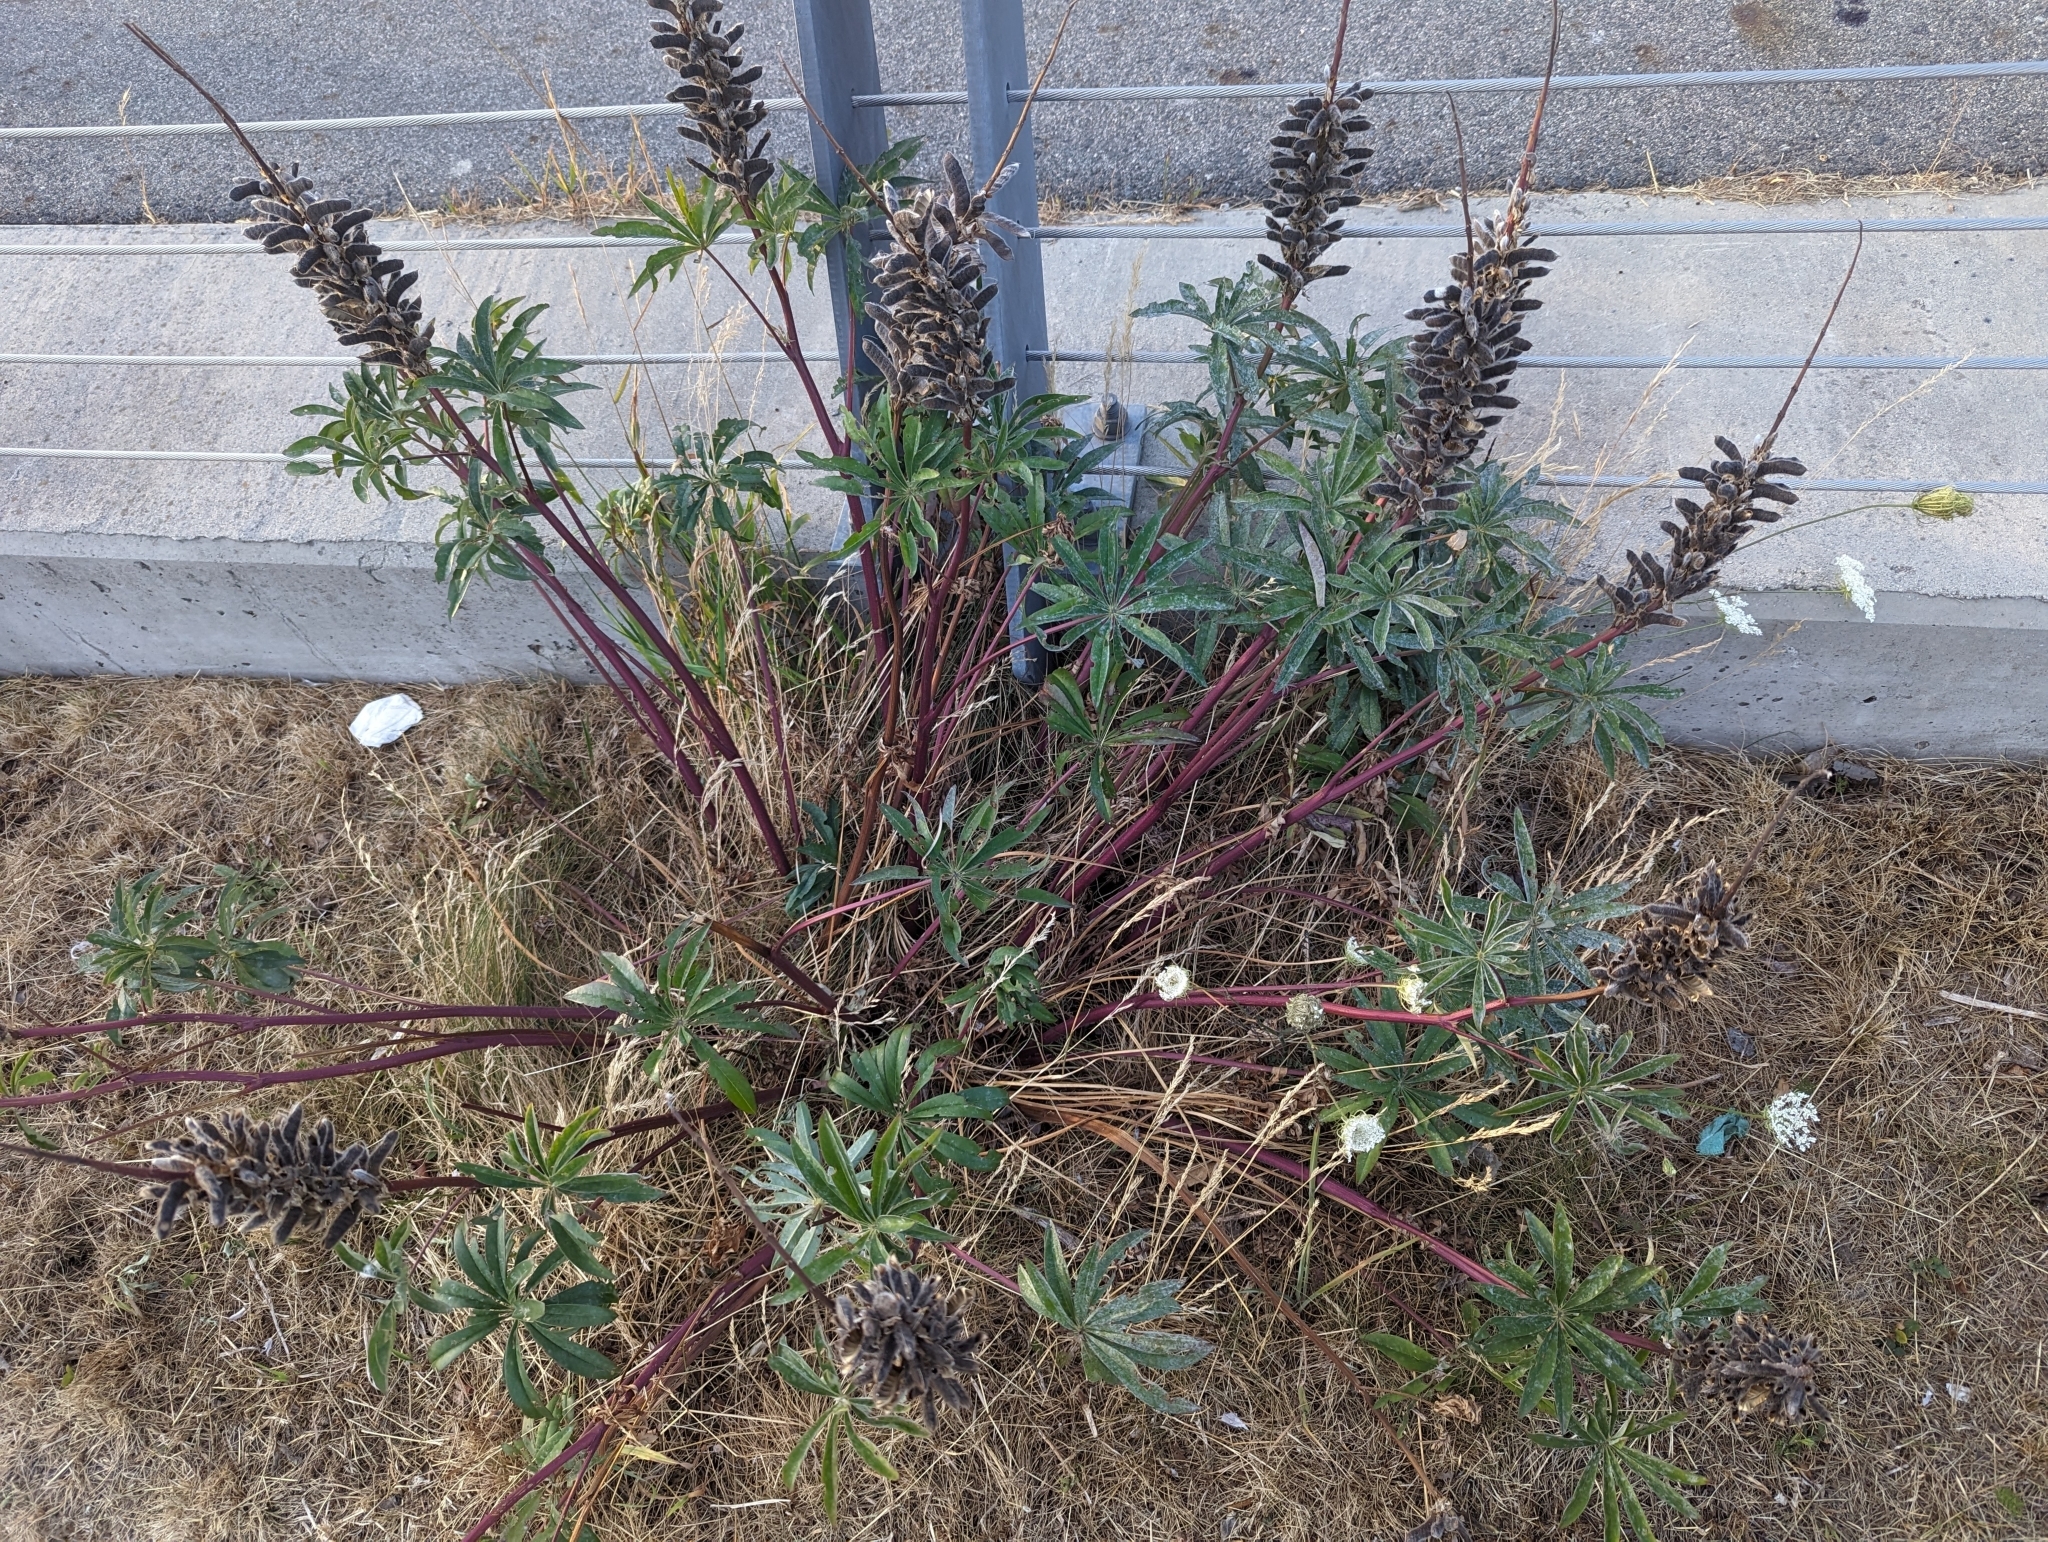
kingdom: Plantae
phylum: Tracheophyta
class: Magnoliopsida
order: Lamiales
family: Lamiaceae
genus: Prunella
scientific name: Prunella vulgaris
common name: Heal-all
